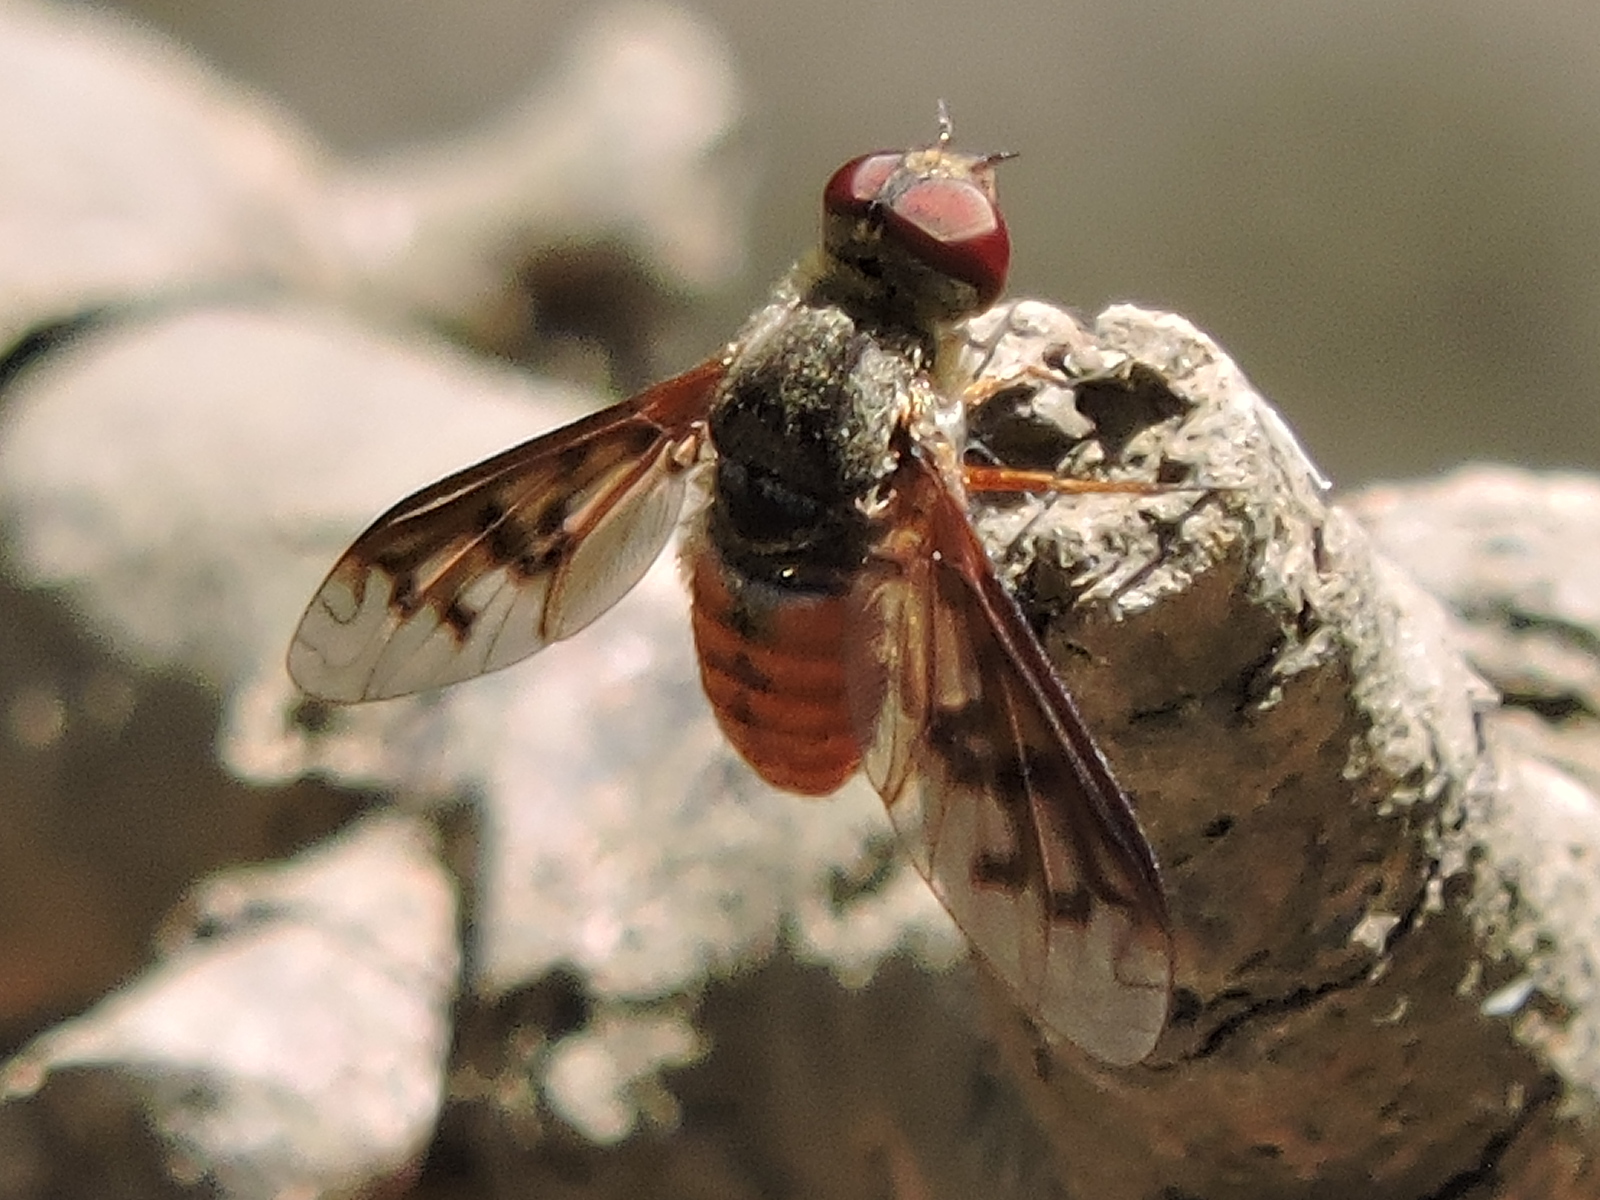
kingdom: Animalia
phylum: Arthropoda
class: Insecta
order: Diptera
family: Bombyliidae
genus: Neodiplocampta
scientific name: Neodiplocampta miranda
